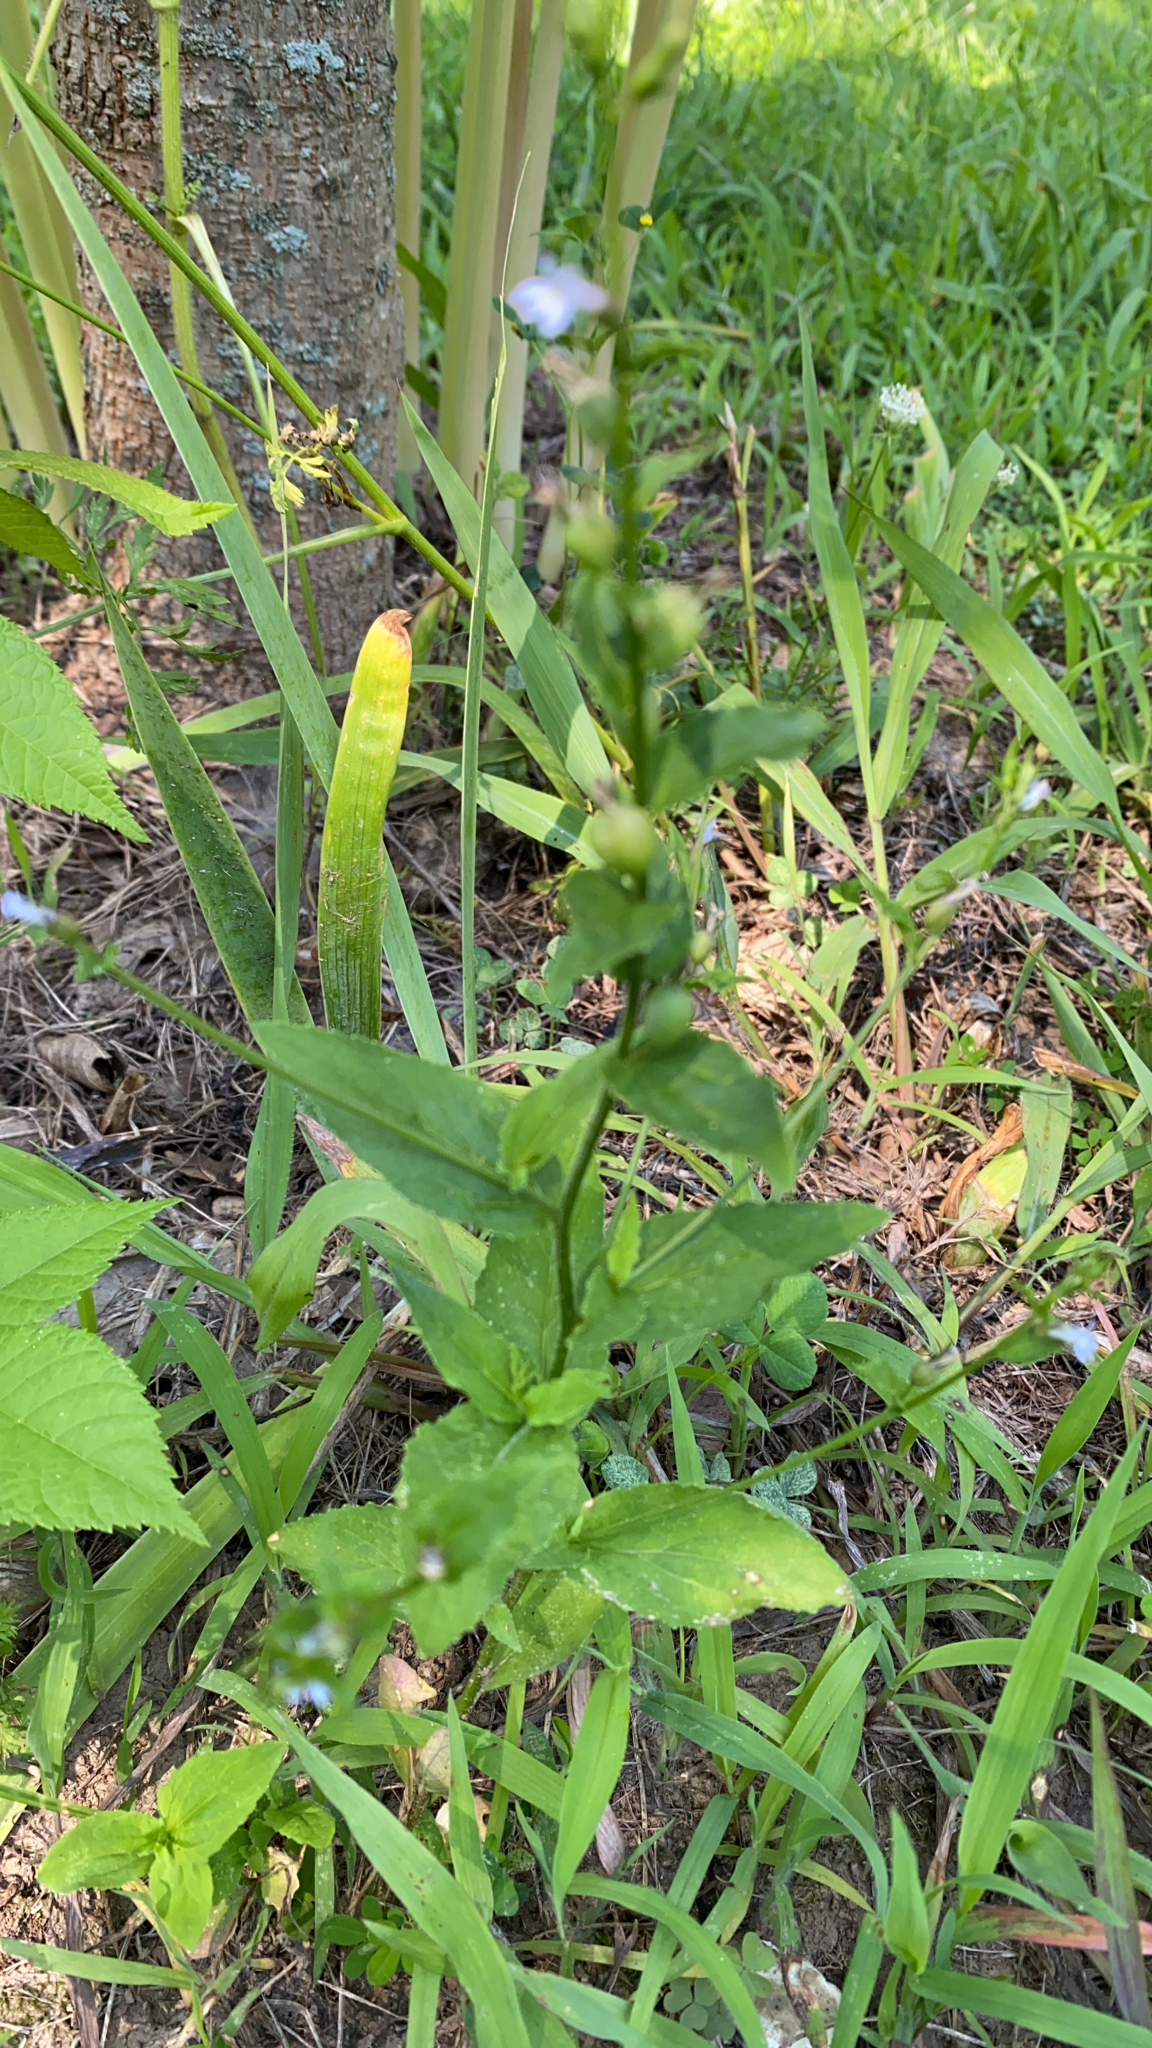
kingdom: Plantae
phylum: Tracheophyta
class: Magnoliopsida
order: Asterales
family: Campanulaceae
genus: Lobelia
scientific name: Lobelia inflata
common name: Indian tobacco
